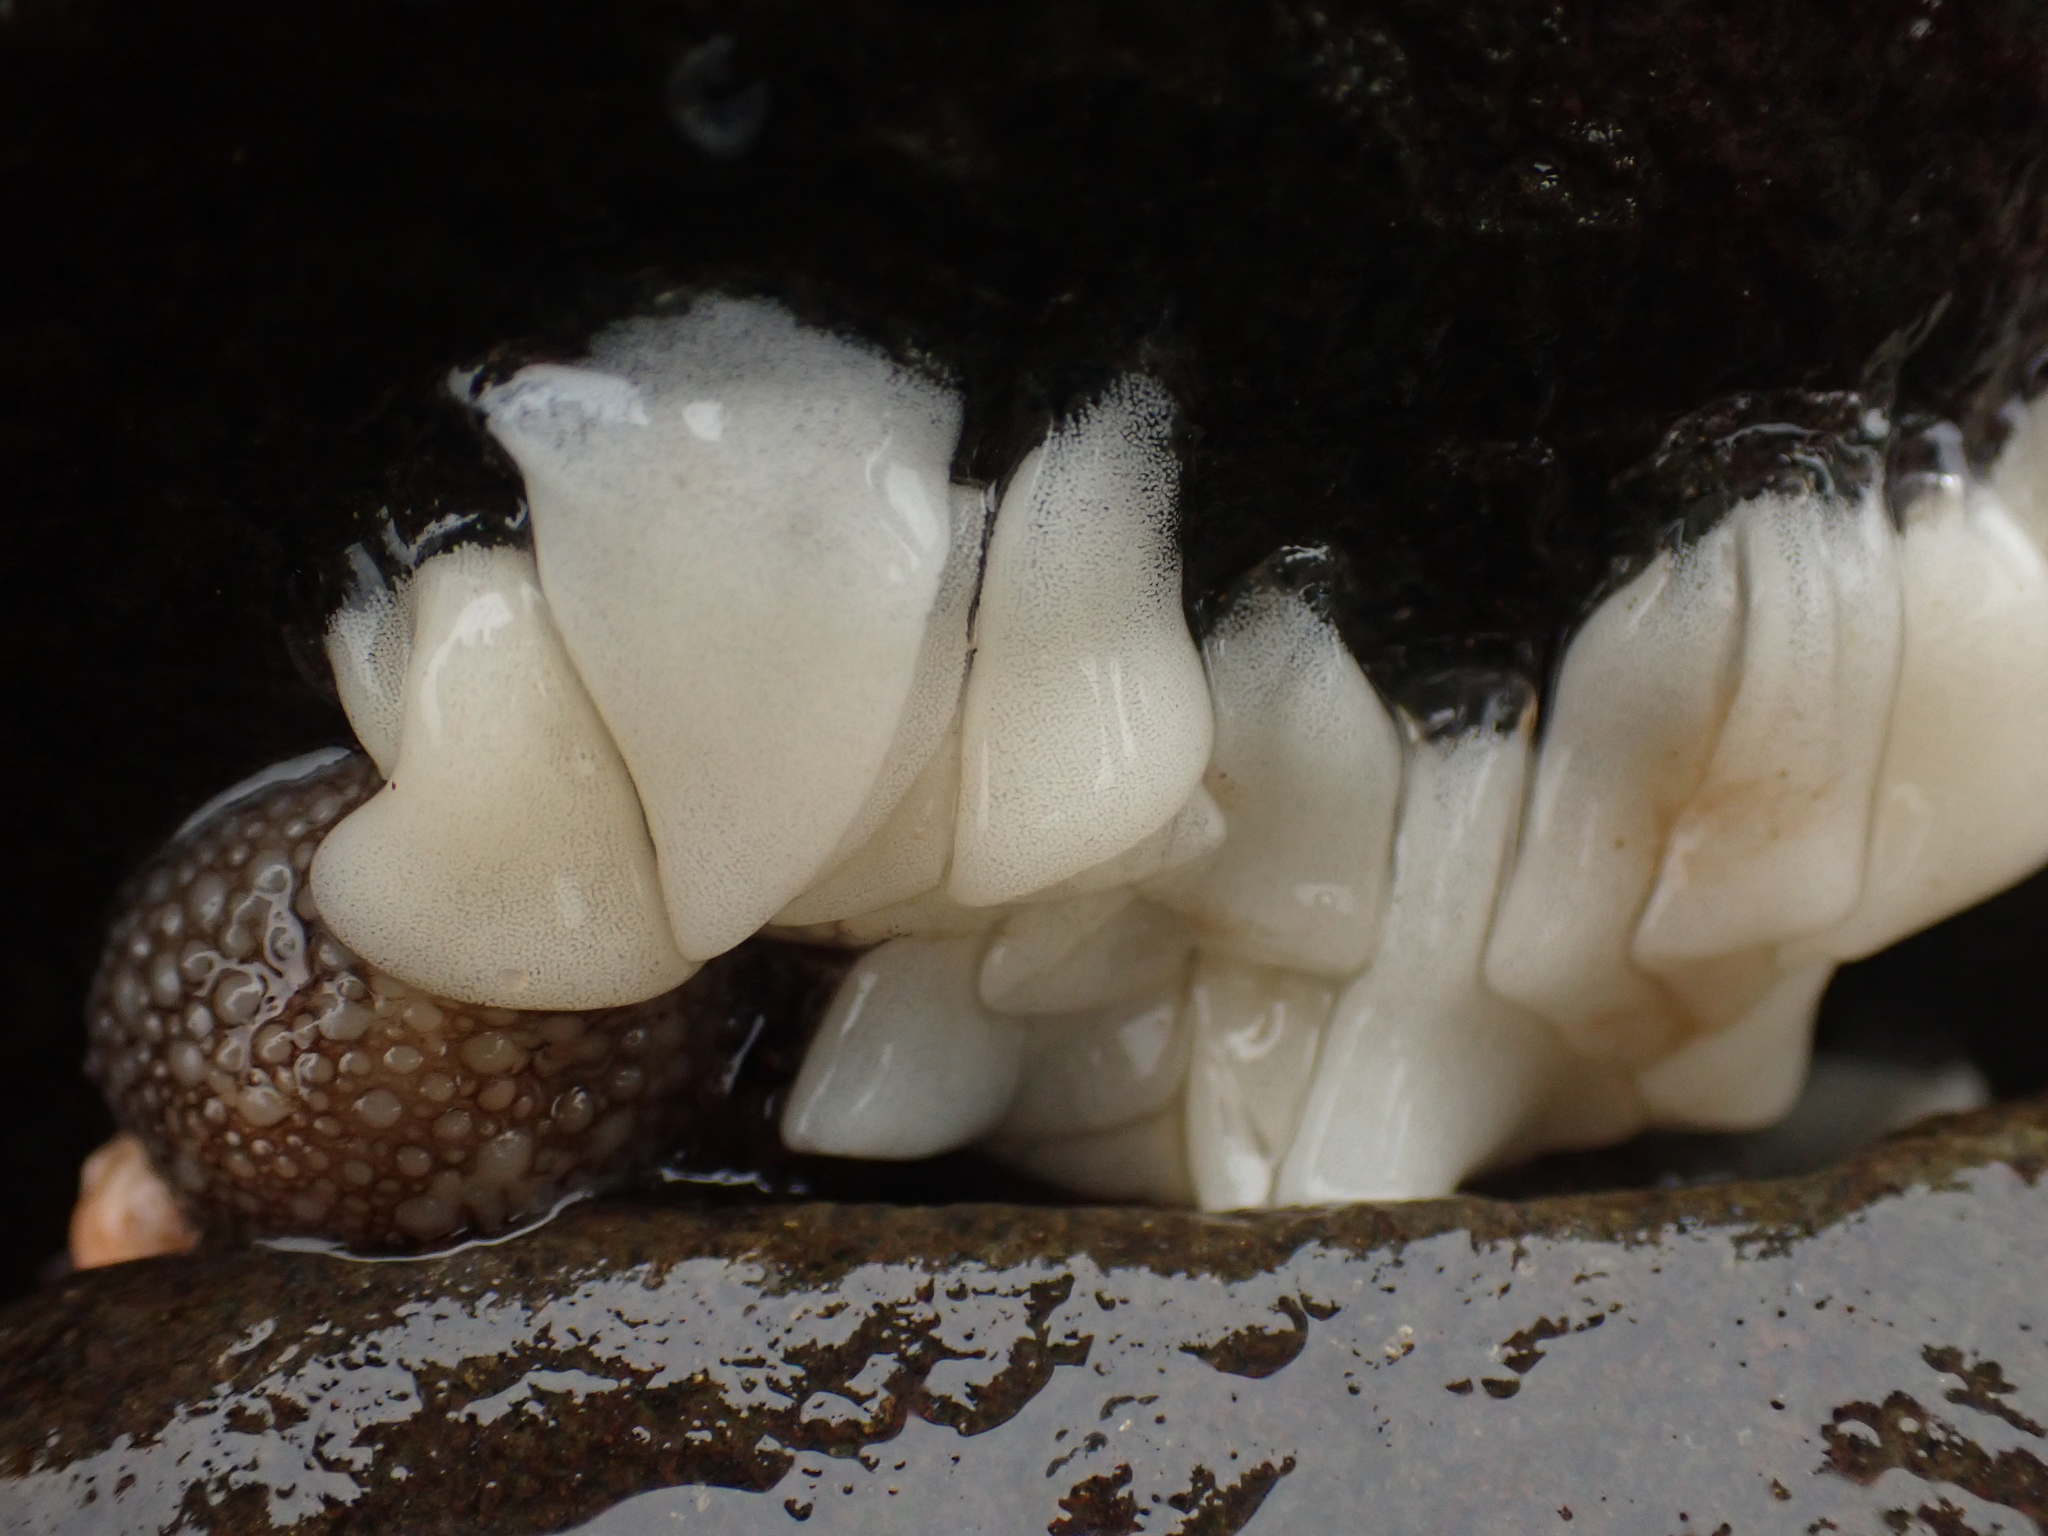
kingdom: Animalia
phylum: Mollusca
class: Gastropoda
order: Nudibranchia
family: Onchidorididae
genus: Onchidoris
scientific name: Onchidoris bilamellata
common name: Barnacle-eating onchidoris
